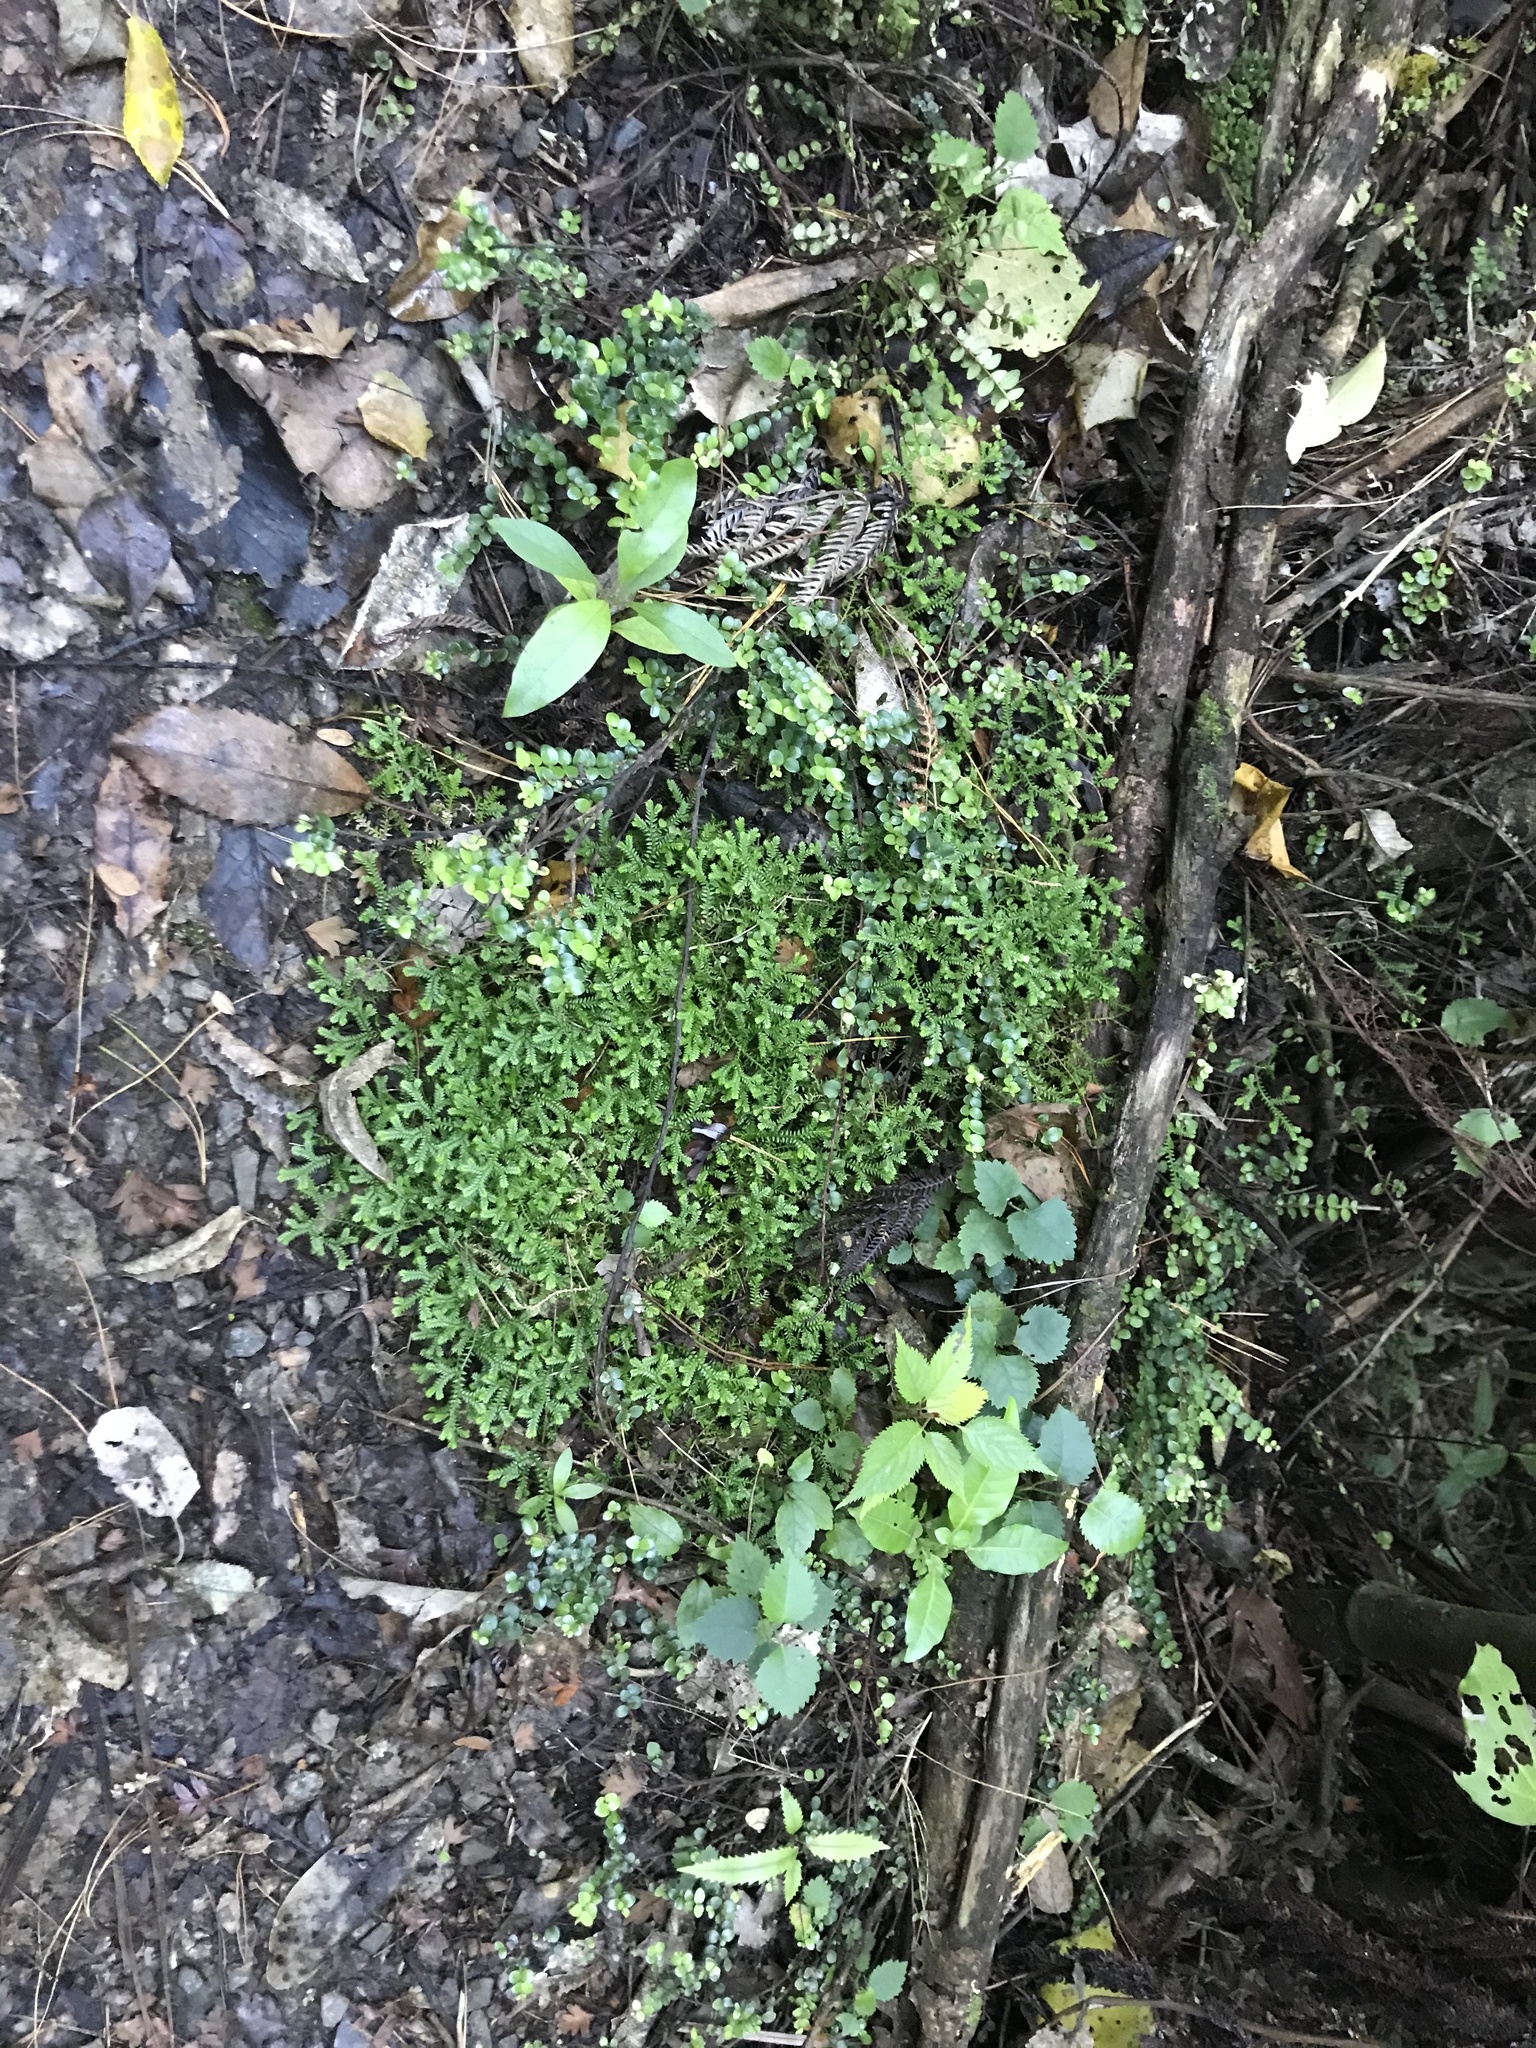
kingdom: Plantae
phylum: Tracheophyta
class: Lycopodiopsida
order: Selaginellales
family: Selaginellaceae
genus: Selaginella
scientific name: Selaginella kraussiana
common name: Krauss' spikemoss
